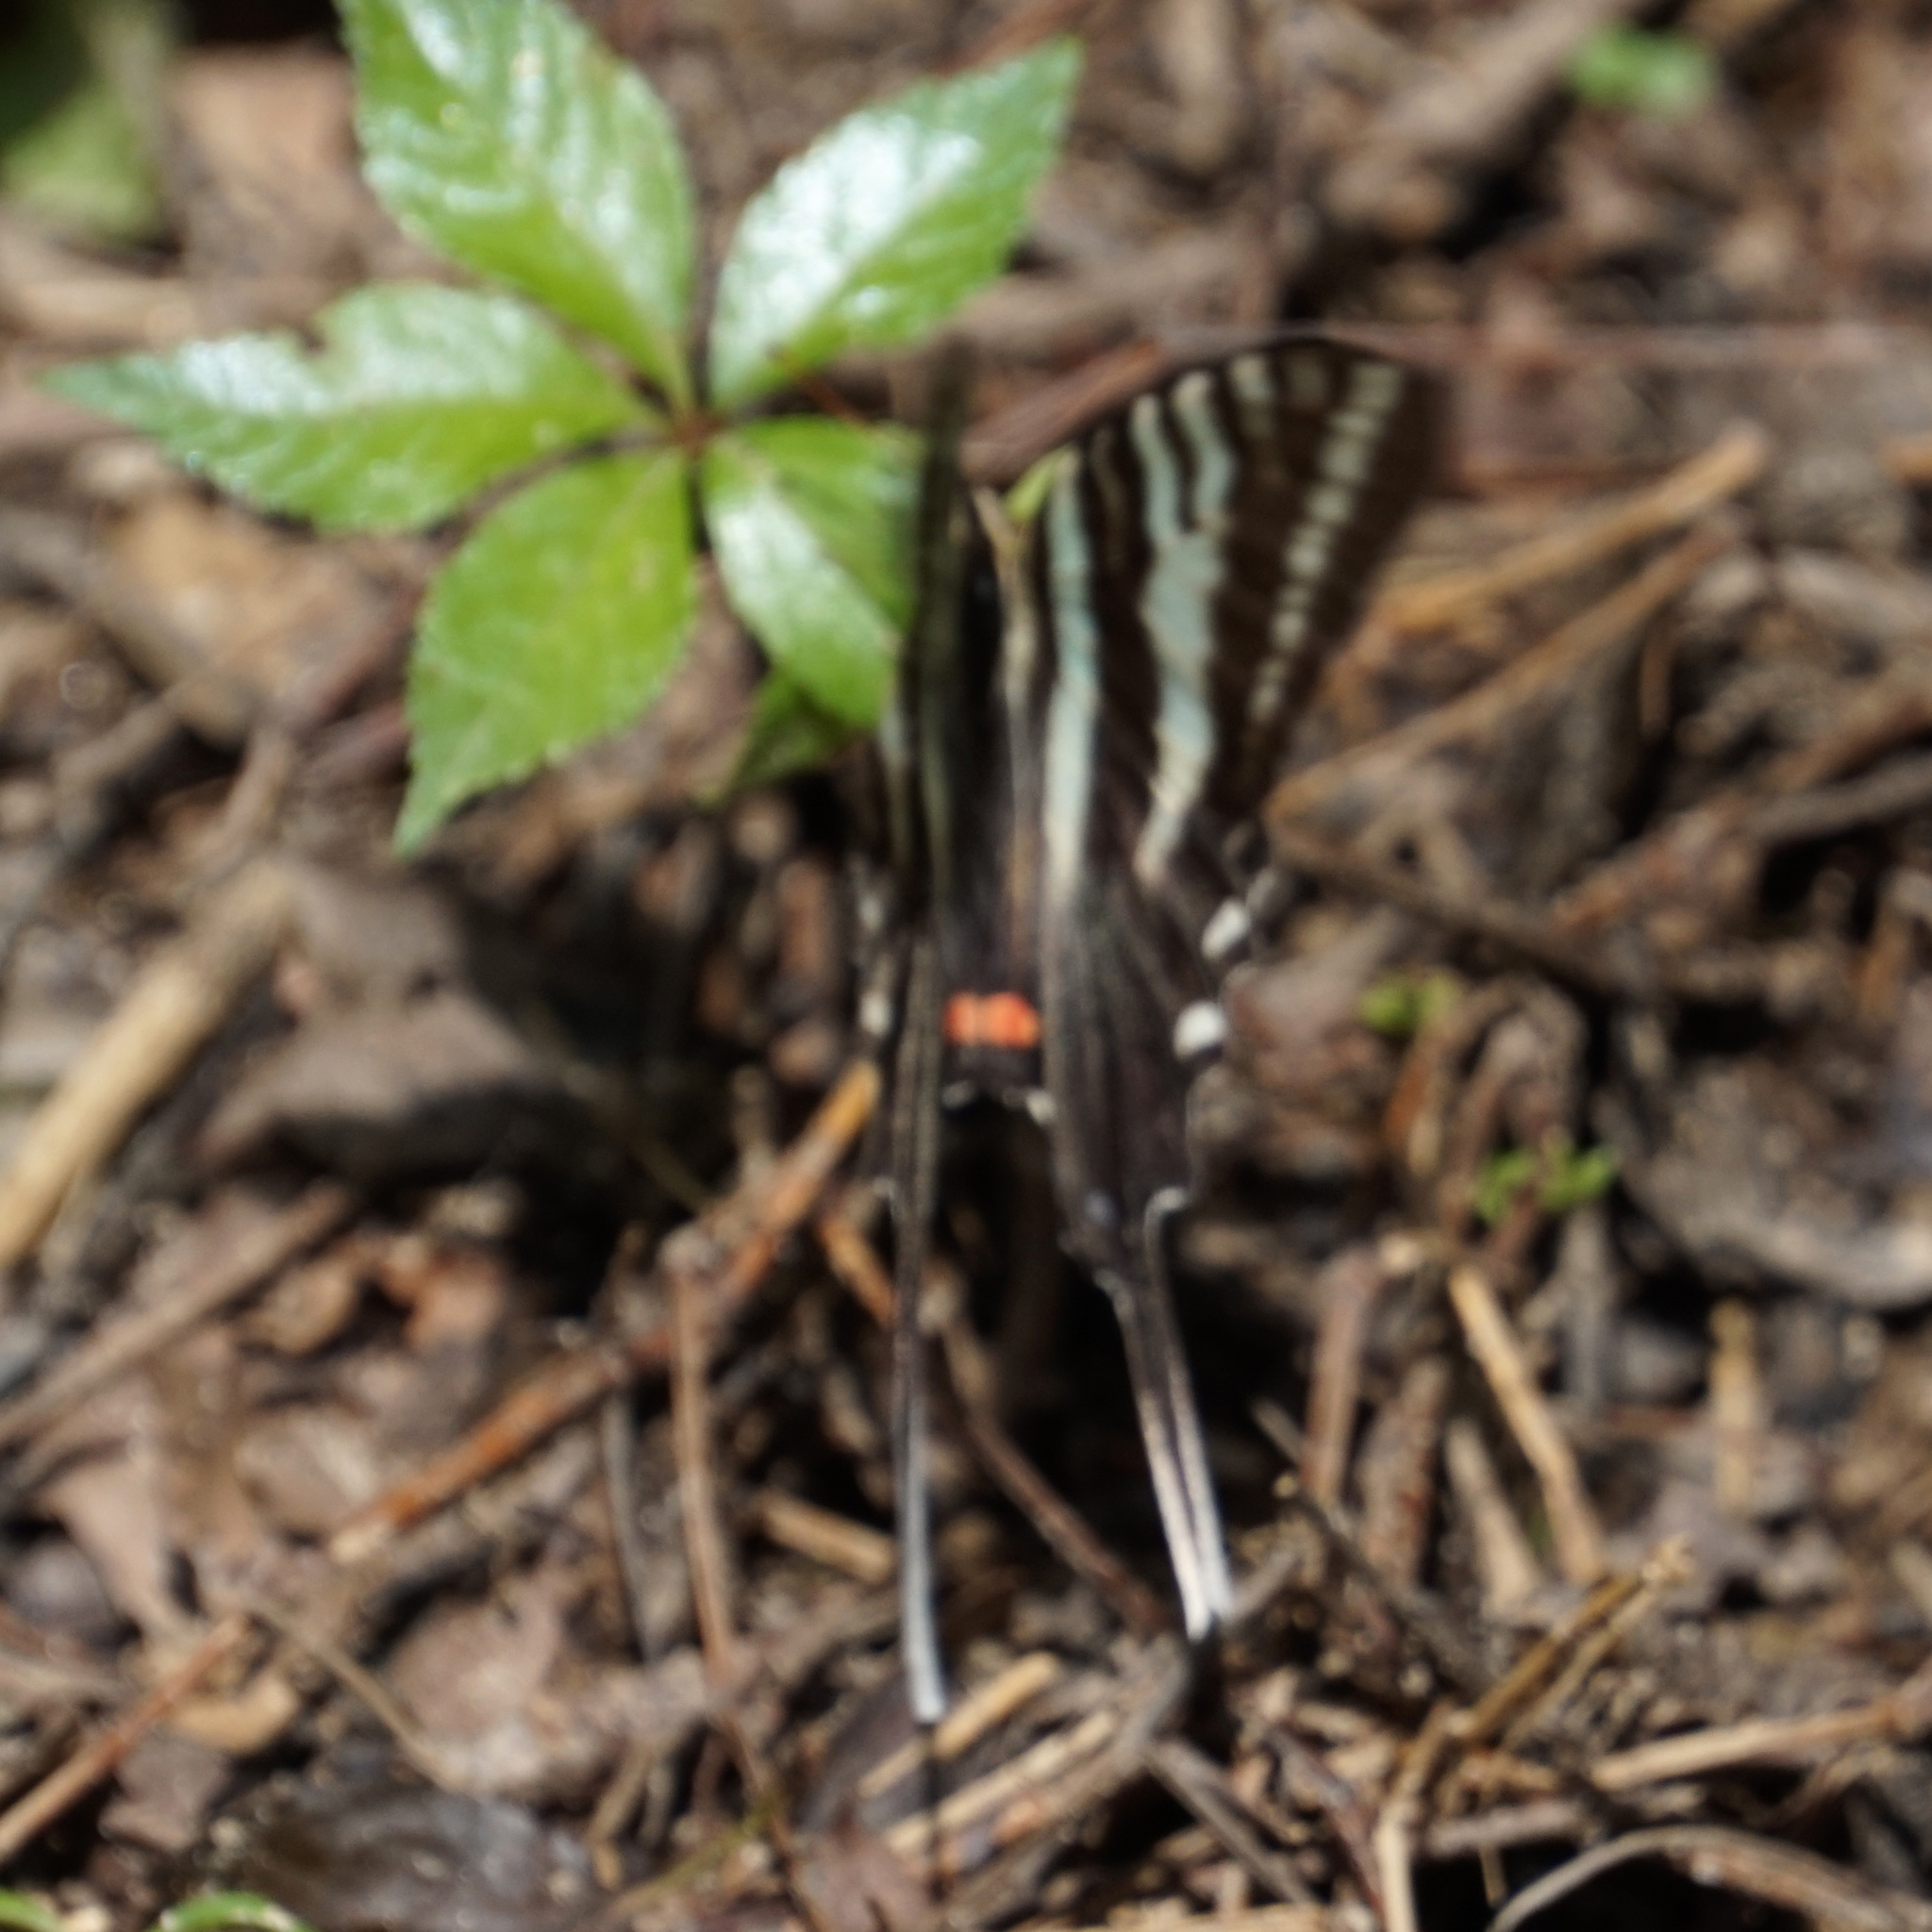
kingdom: Animalia
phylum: Arthropoda
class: Insecta
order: Lepidoptera
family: Papilionidae
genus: Protographium
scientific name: Protographium marcellus
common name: Zebra swallowtail
